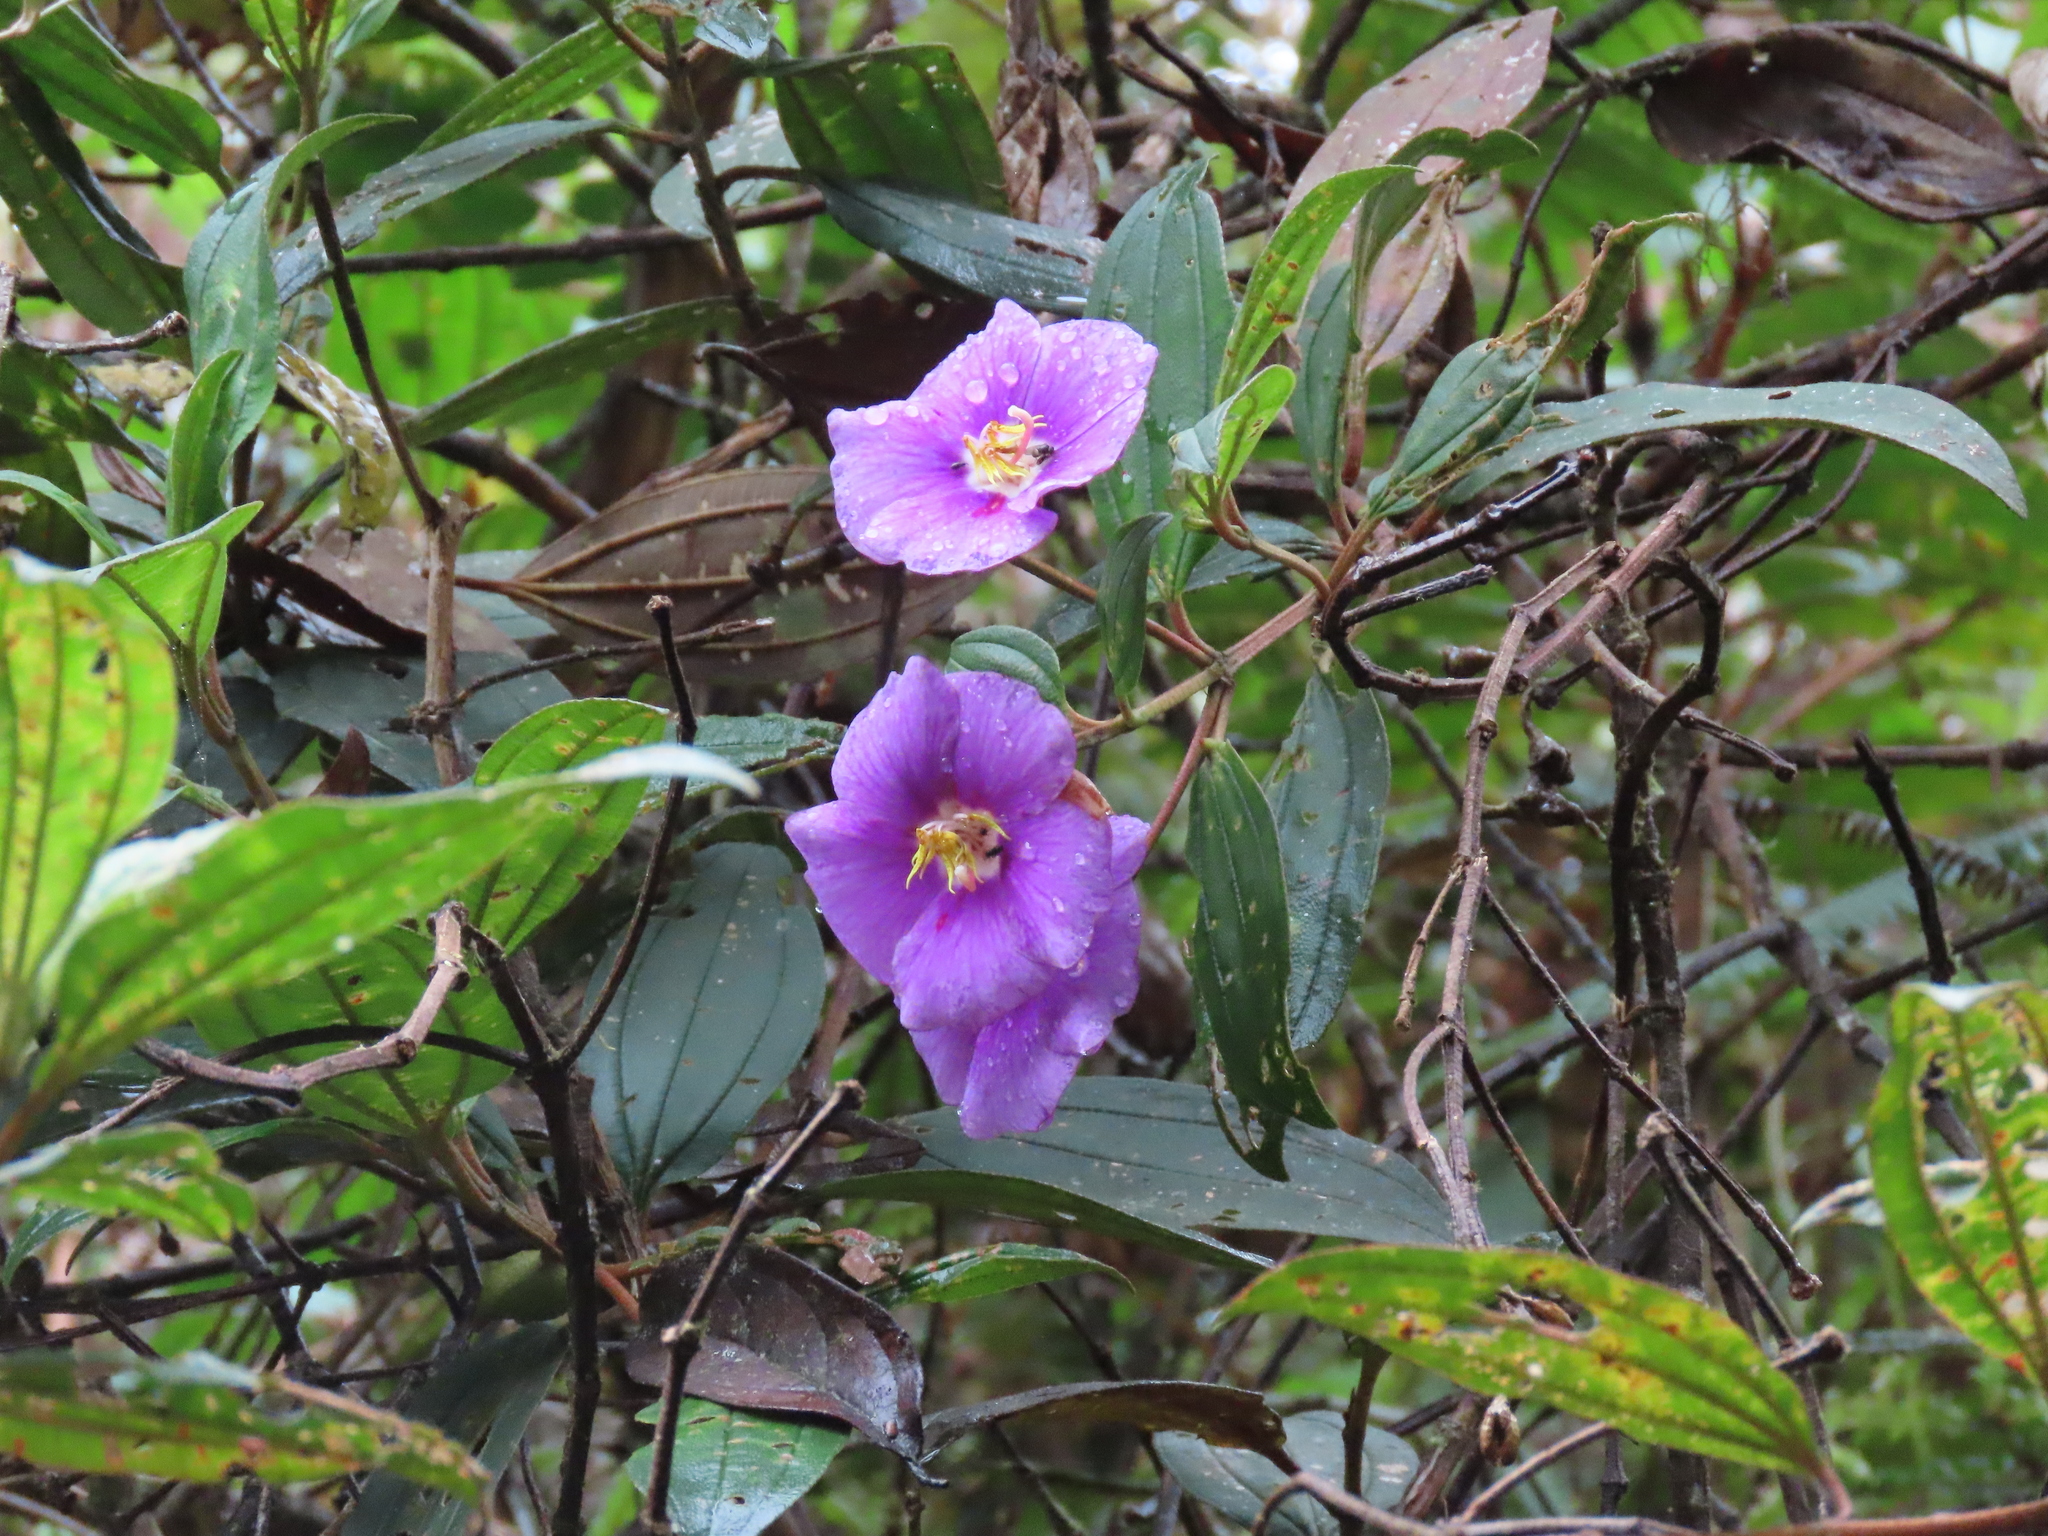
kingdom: Plantae
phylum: Tracheophyta
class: Magnoliopsida
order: Myrtales
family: Melastomataceae
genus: Andesanthus
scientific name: Andesanthus lepidotus
